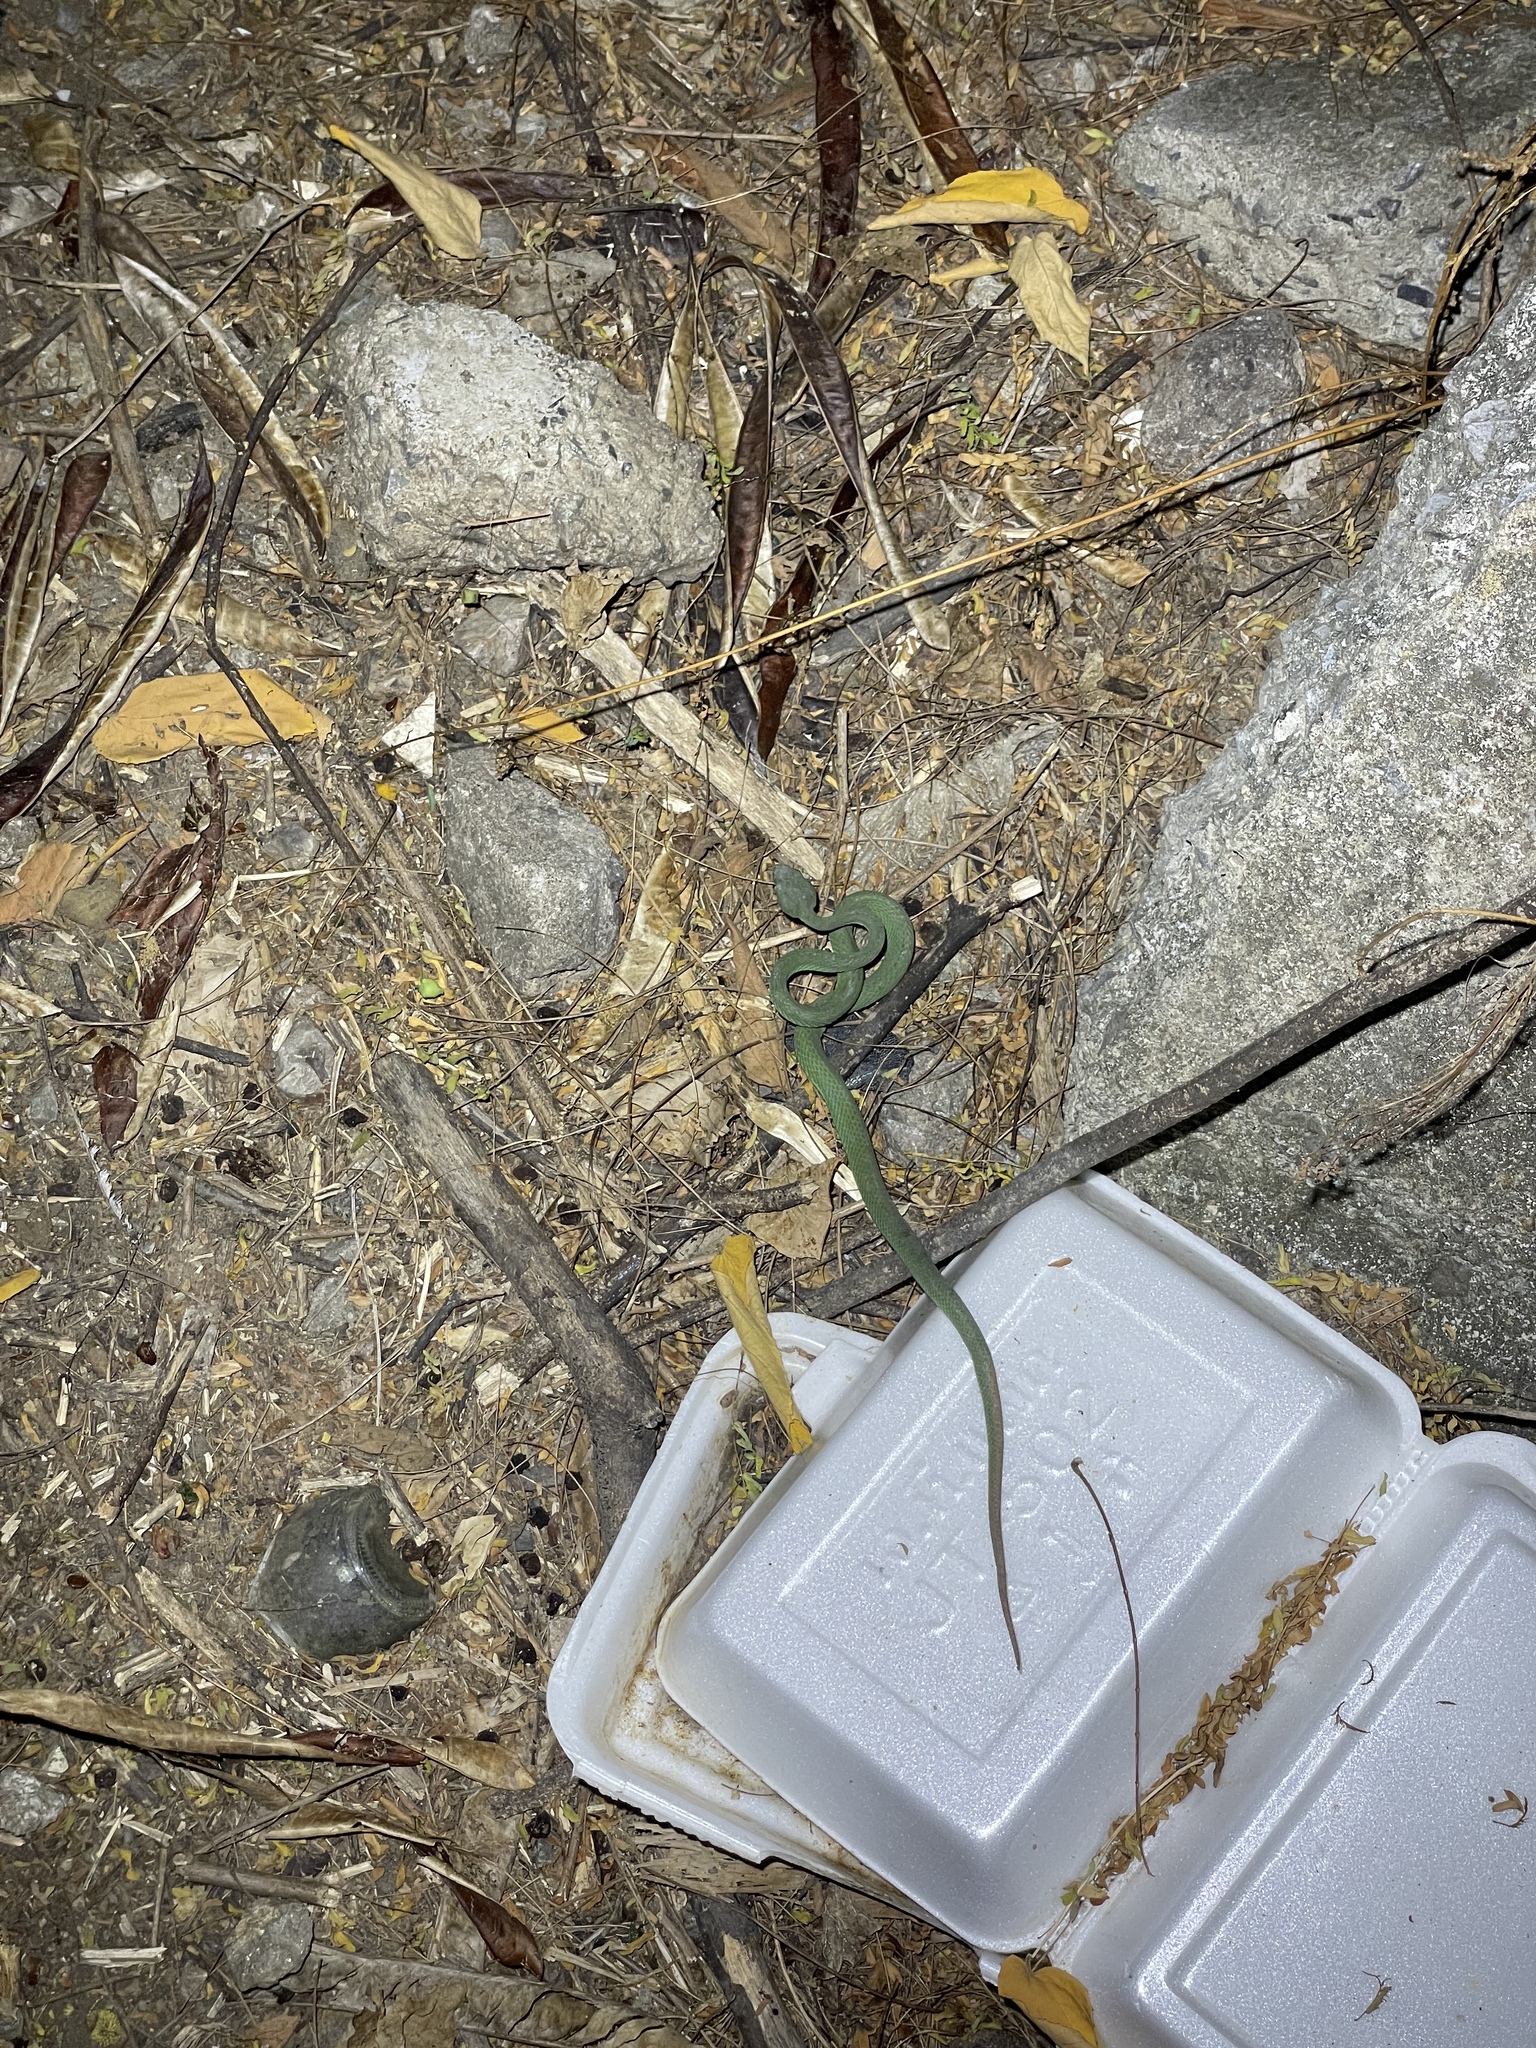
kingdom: Animalia
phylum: Chordata
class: Squamata
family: Viperidae
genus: Trimeresurus
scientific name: Trimeresurus macrops
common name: Kramer's pit viper
